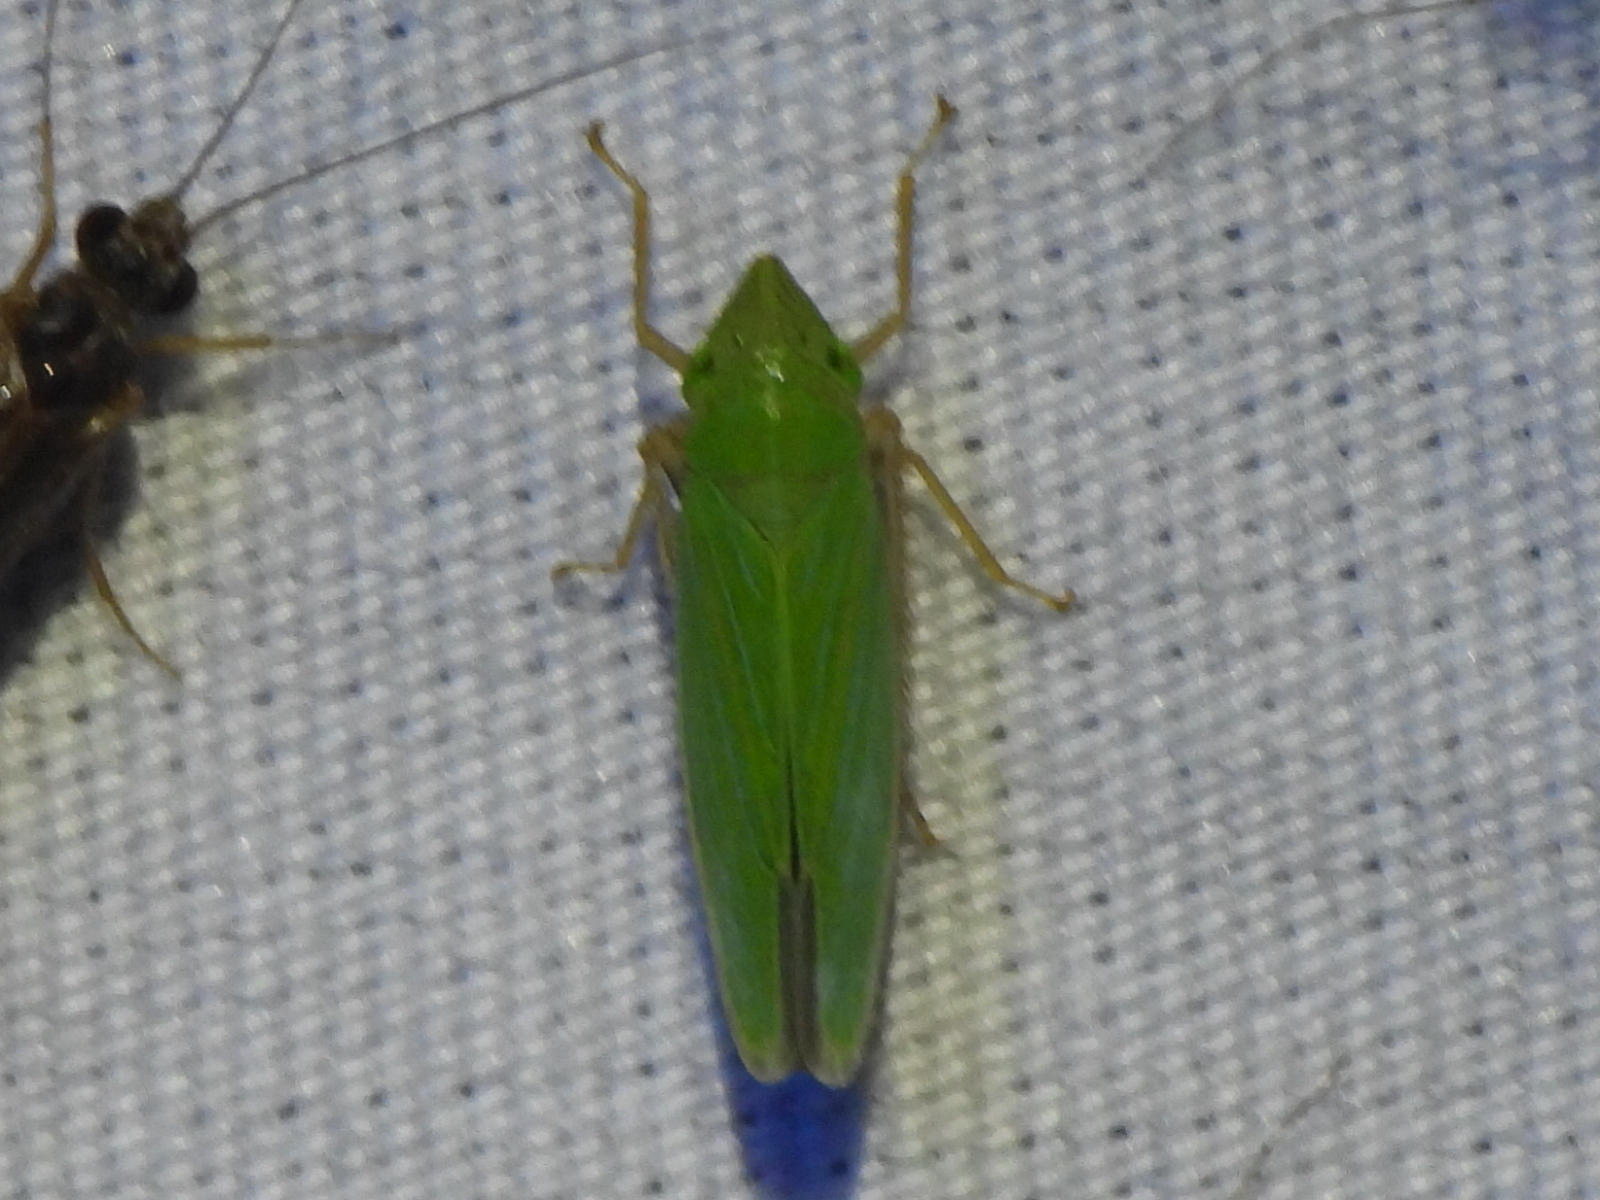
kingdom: Animalia
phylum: Arthropoda
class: Insecta
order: Hemiptera
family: Cicadellidae
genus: Draeculacephala
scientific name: Draeculacephala antica
